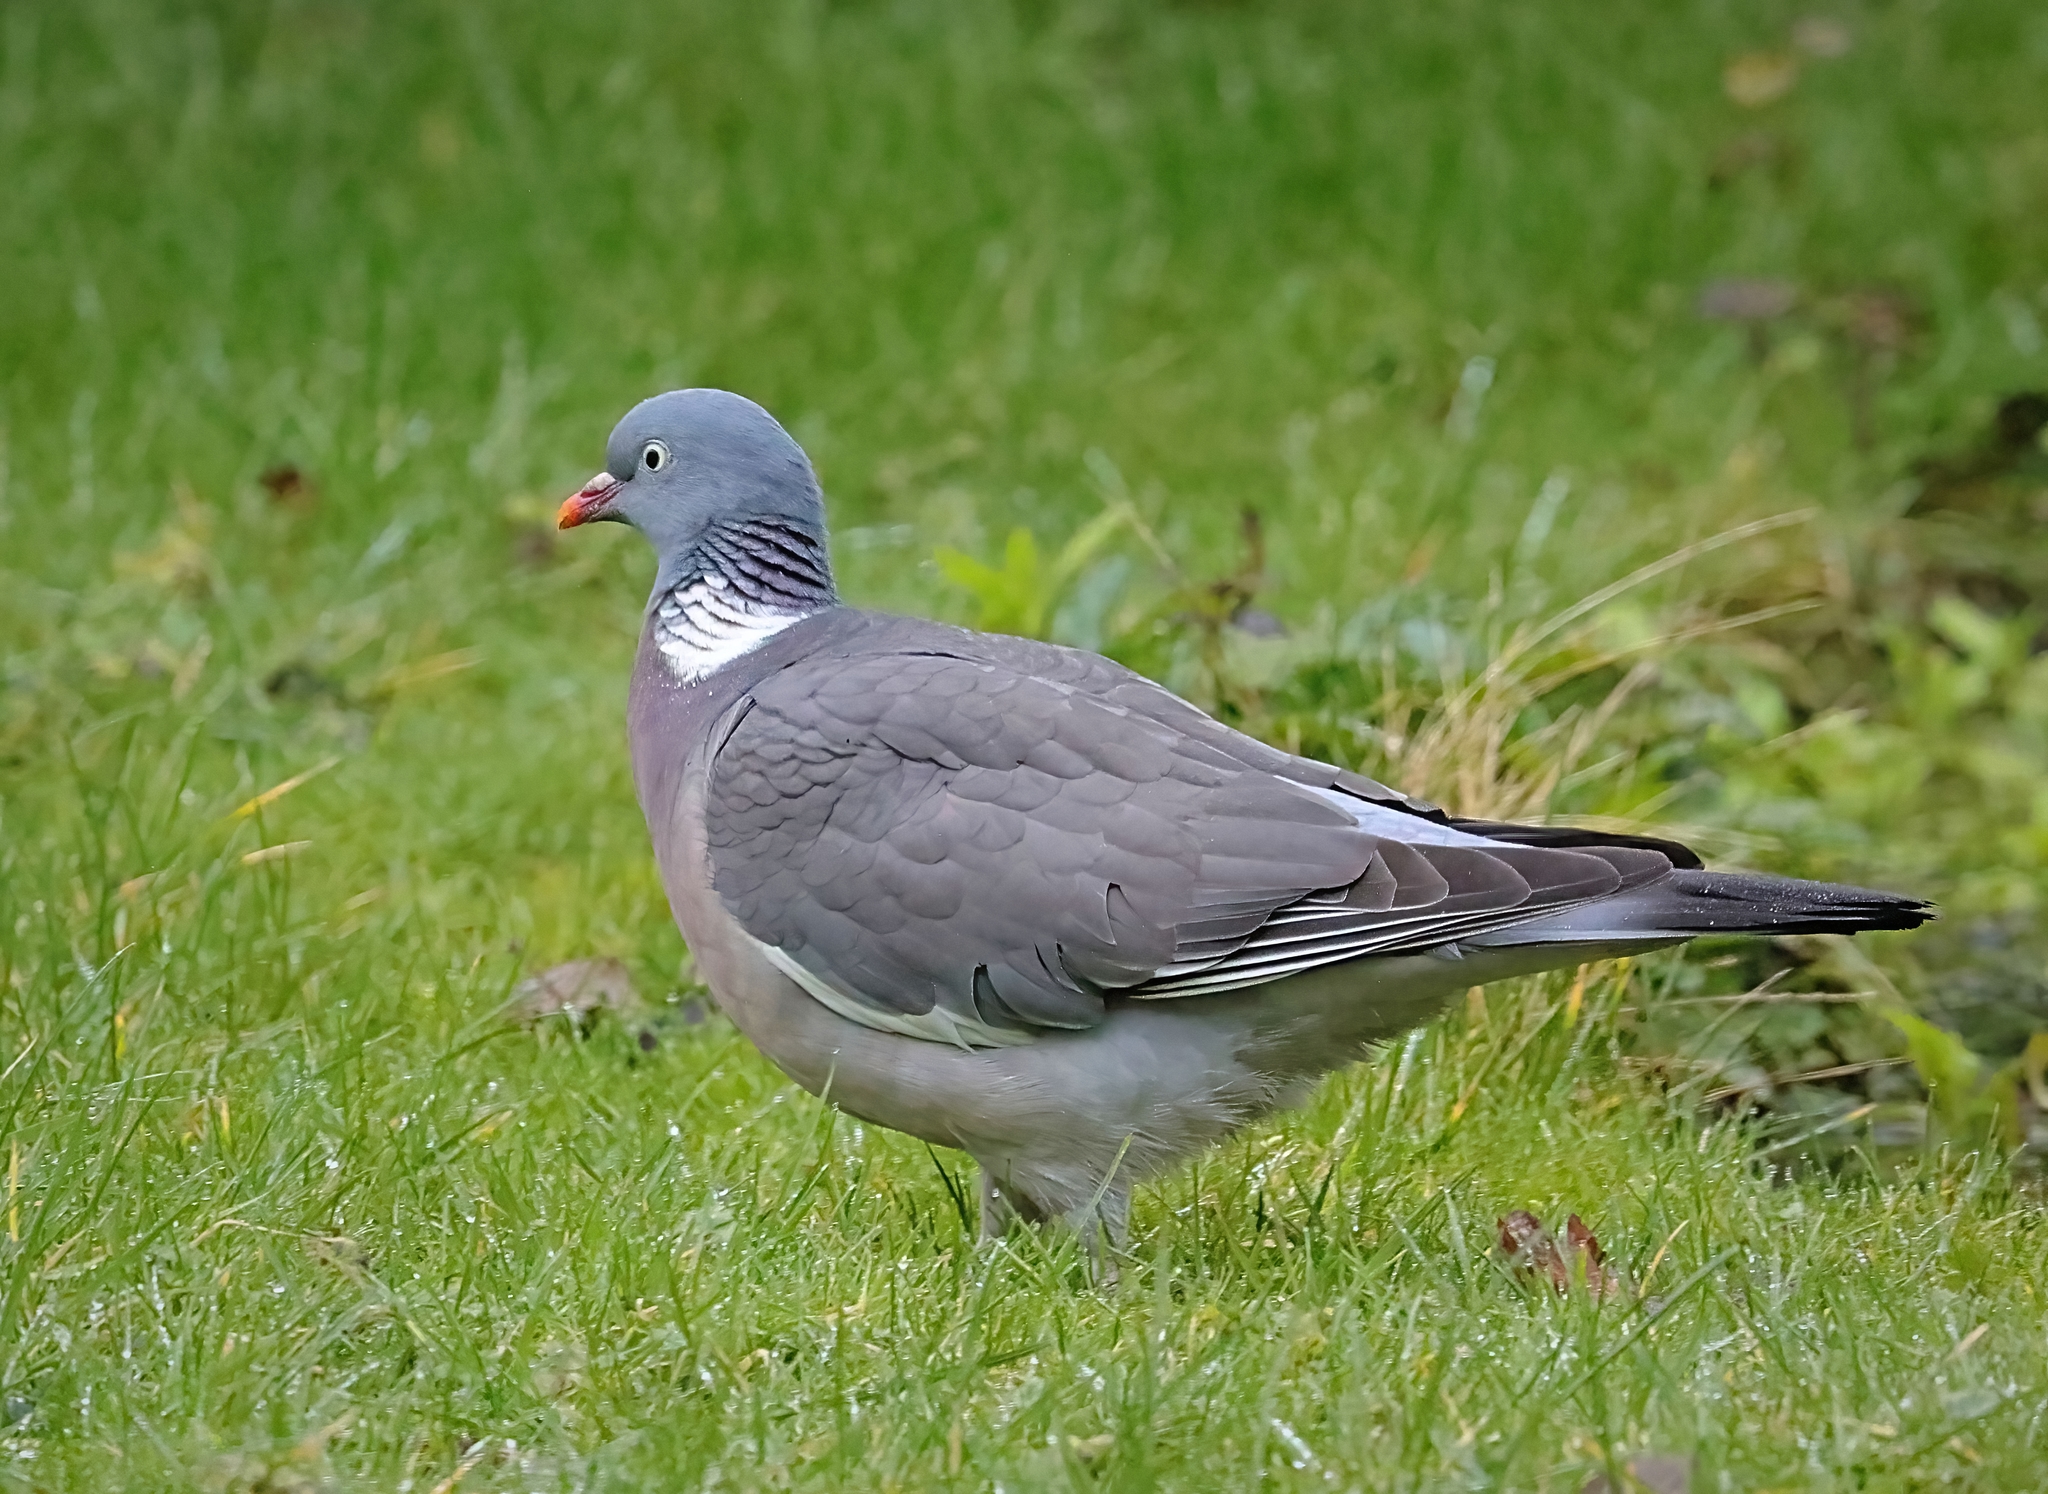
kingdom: Animalia
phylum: Chordata
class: Aves
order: Columbiformes
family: Columbidae
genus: Columba
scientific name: Columba palumbus
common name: Common wood pigeon
